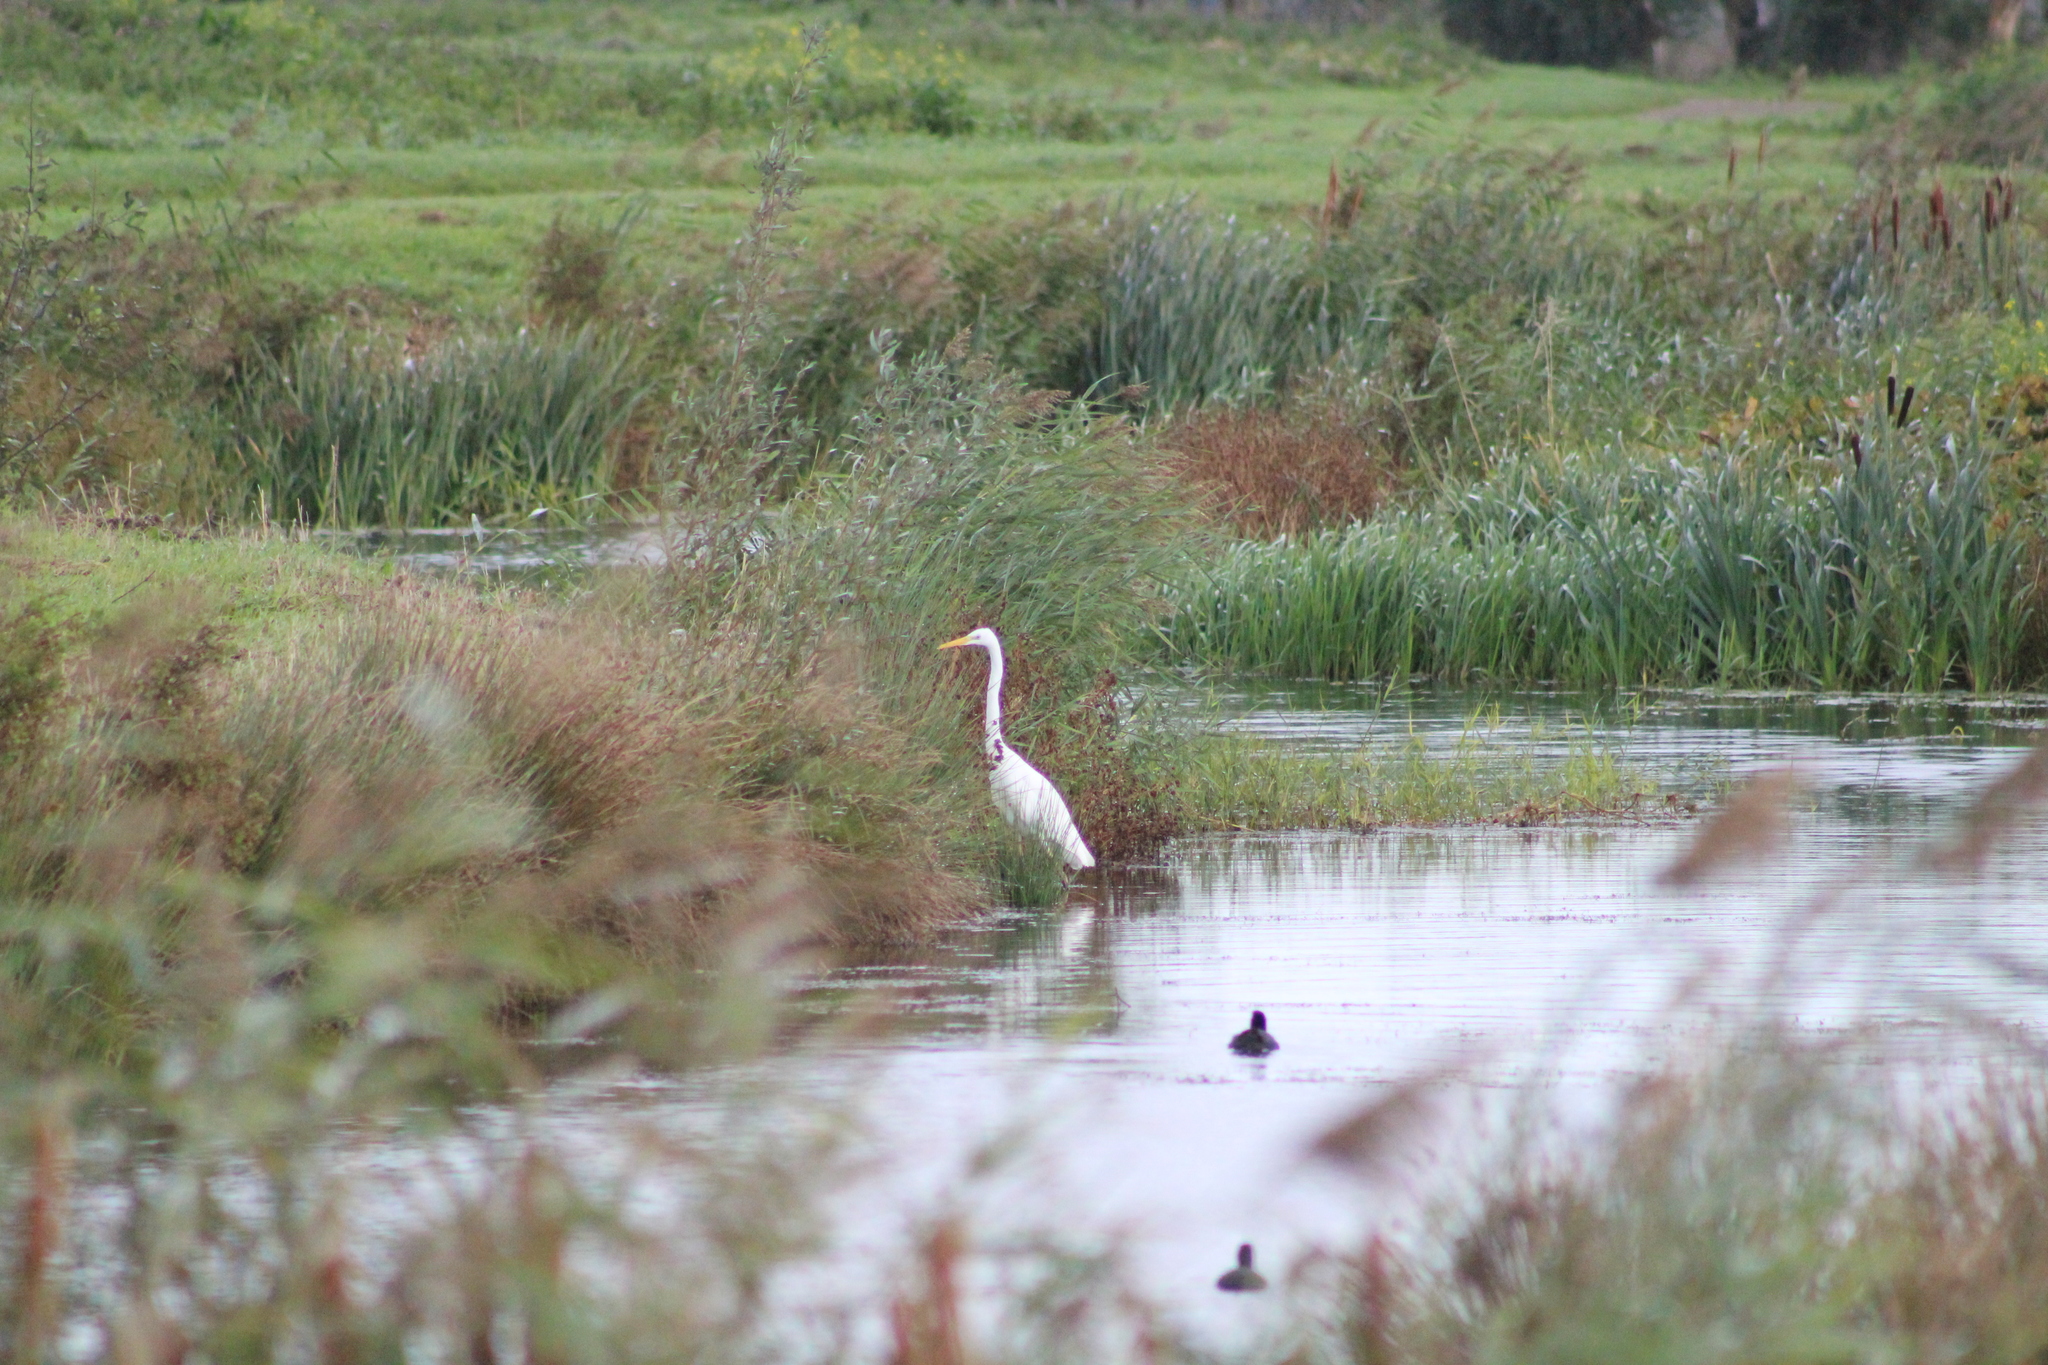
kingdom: Animalia
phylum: Chordata
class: Aves
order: Pelecaniformes
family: Ardeidae
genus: Ardea
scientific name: Ardea alba
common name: Great egret
